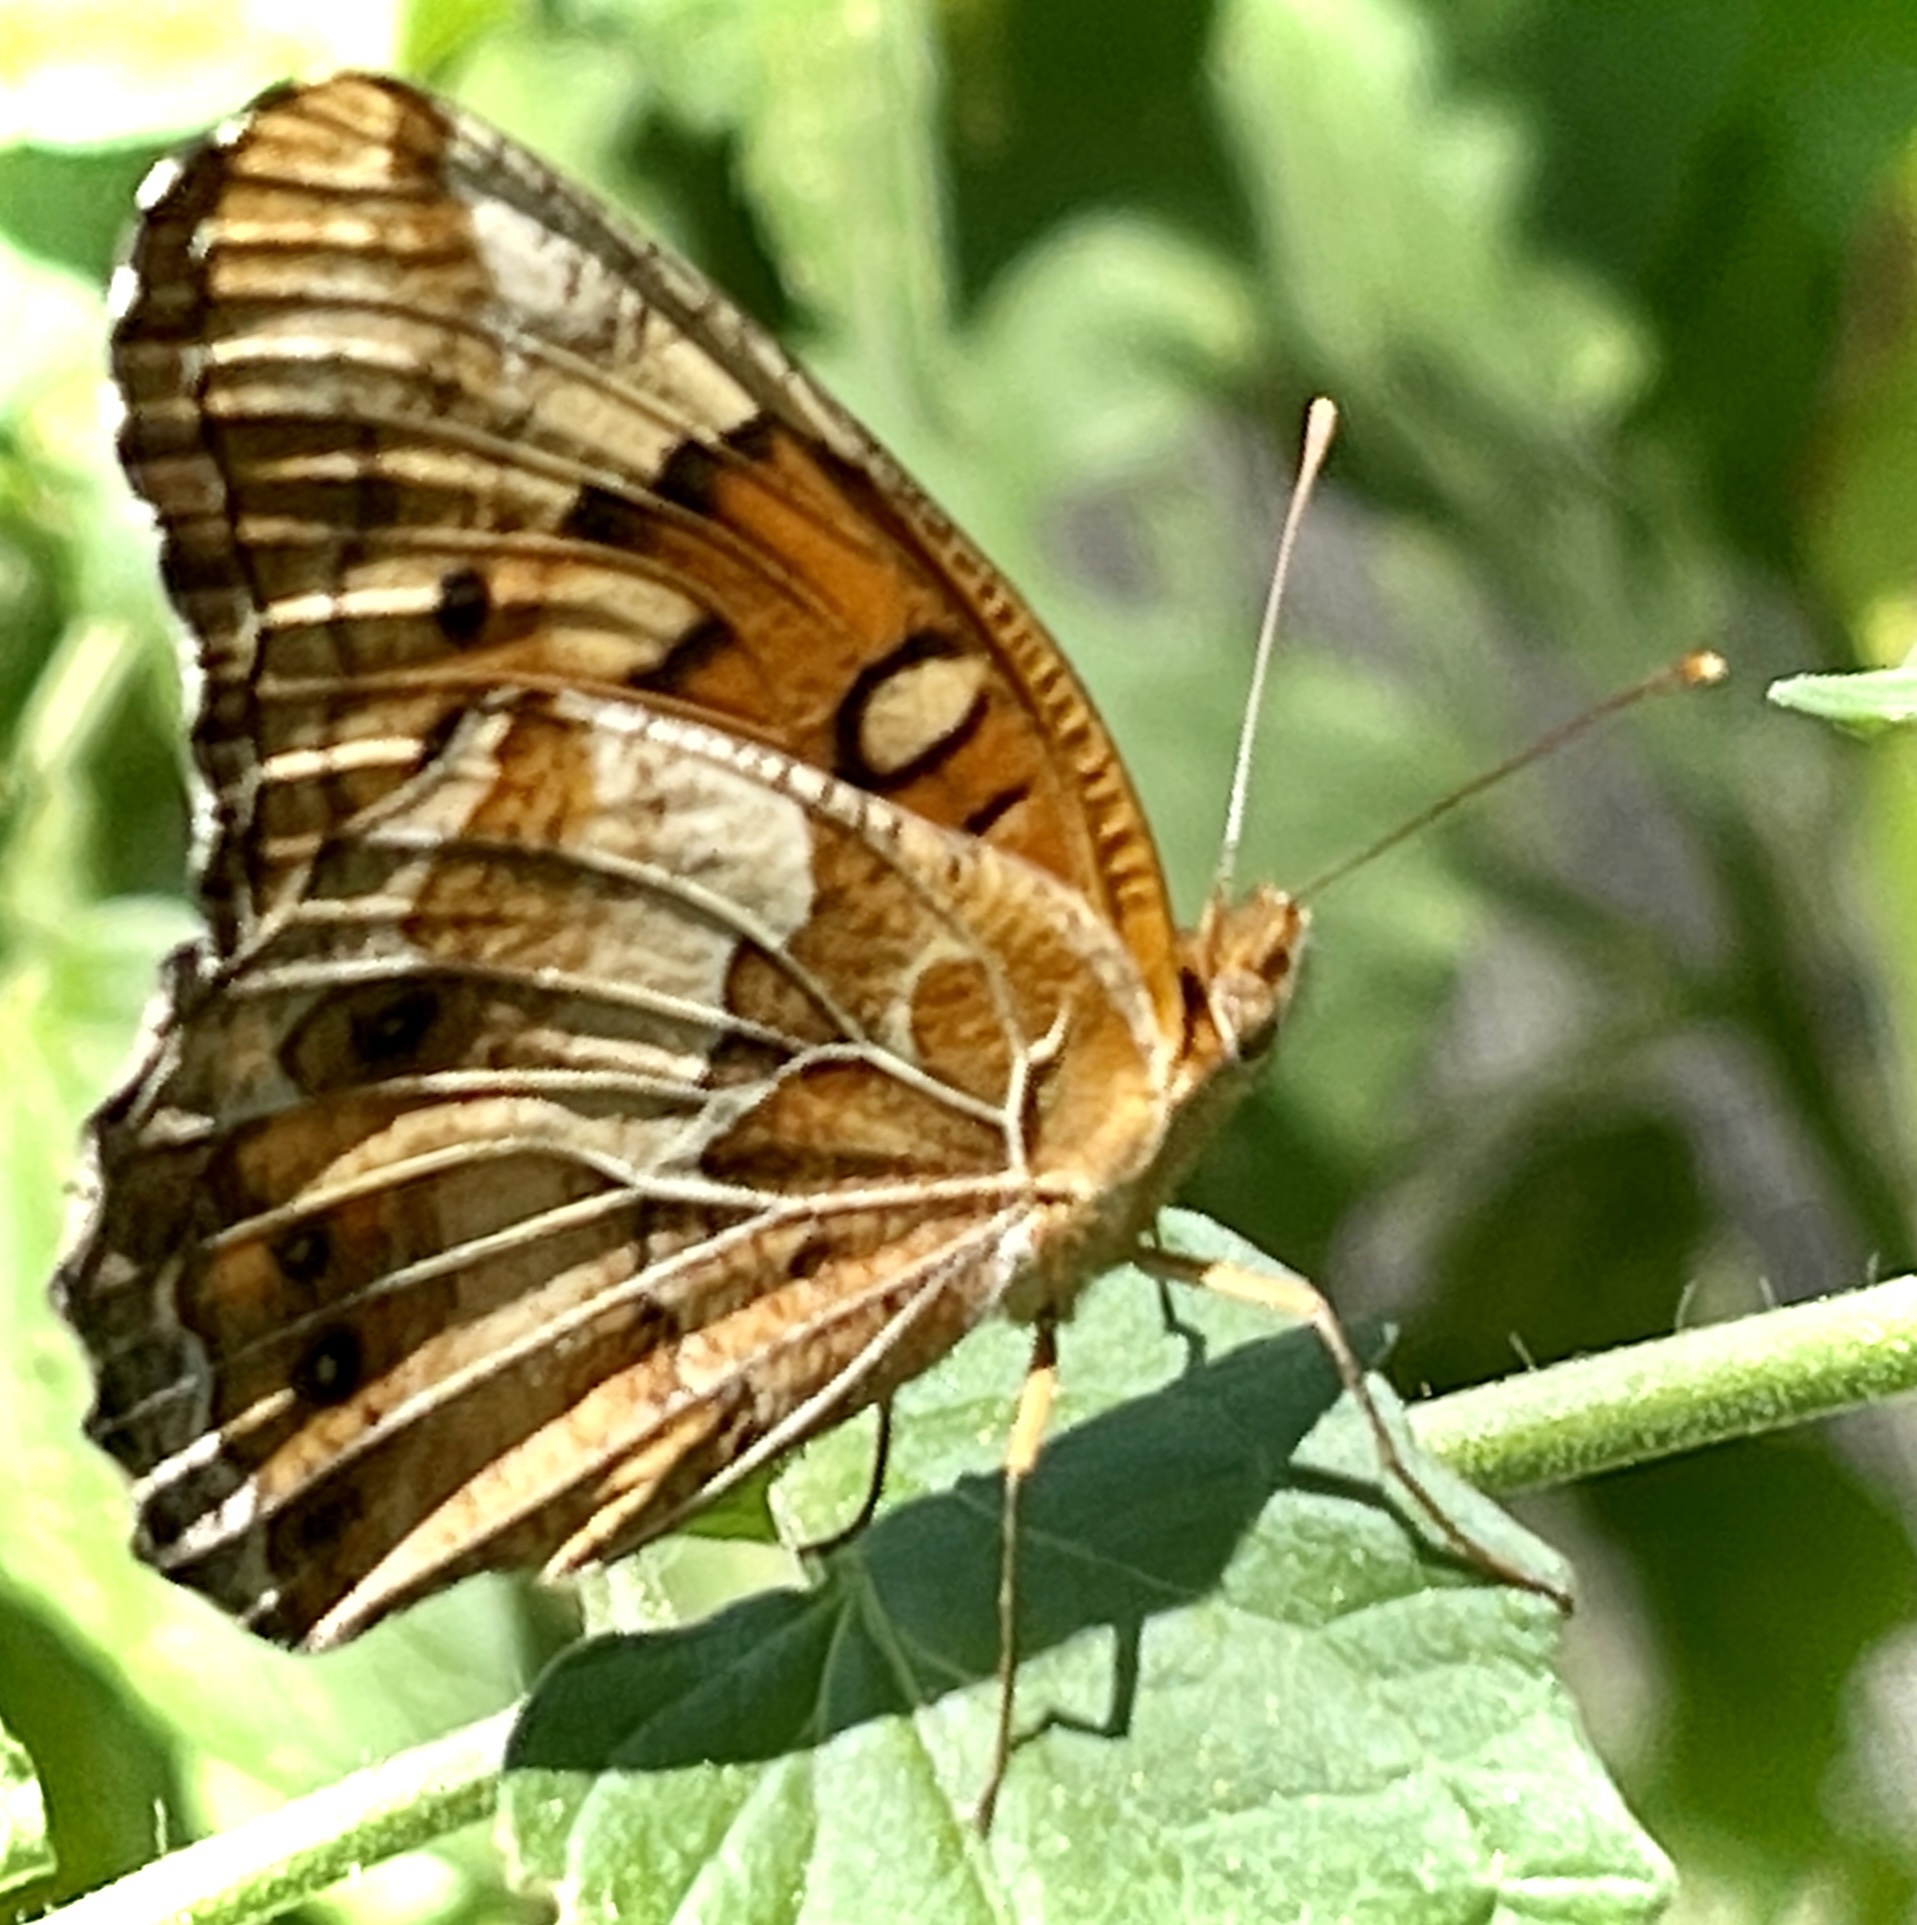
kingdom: Animalia
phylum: Arthropoda
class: Insecta
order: Lepidoptera
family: Nymphalidae
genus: Euptoieta
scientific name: Euptoieta claudia
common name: Variegated fritillary
